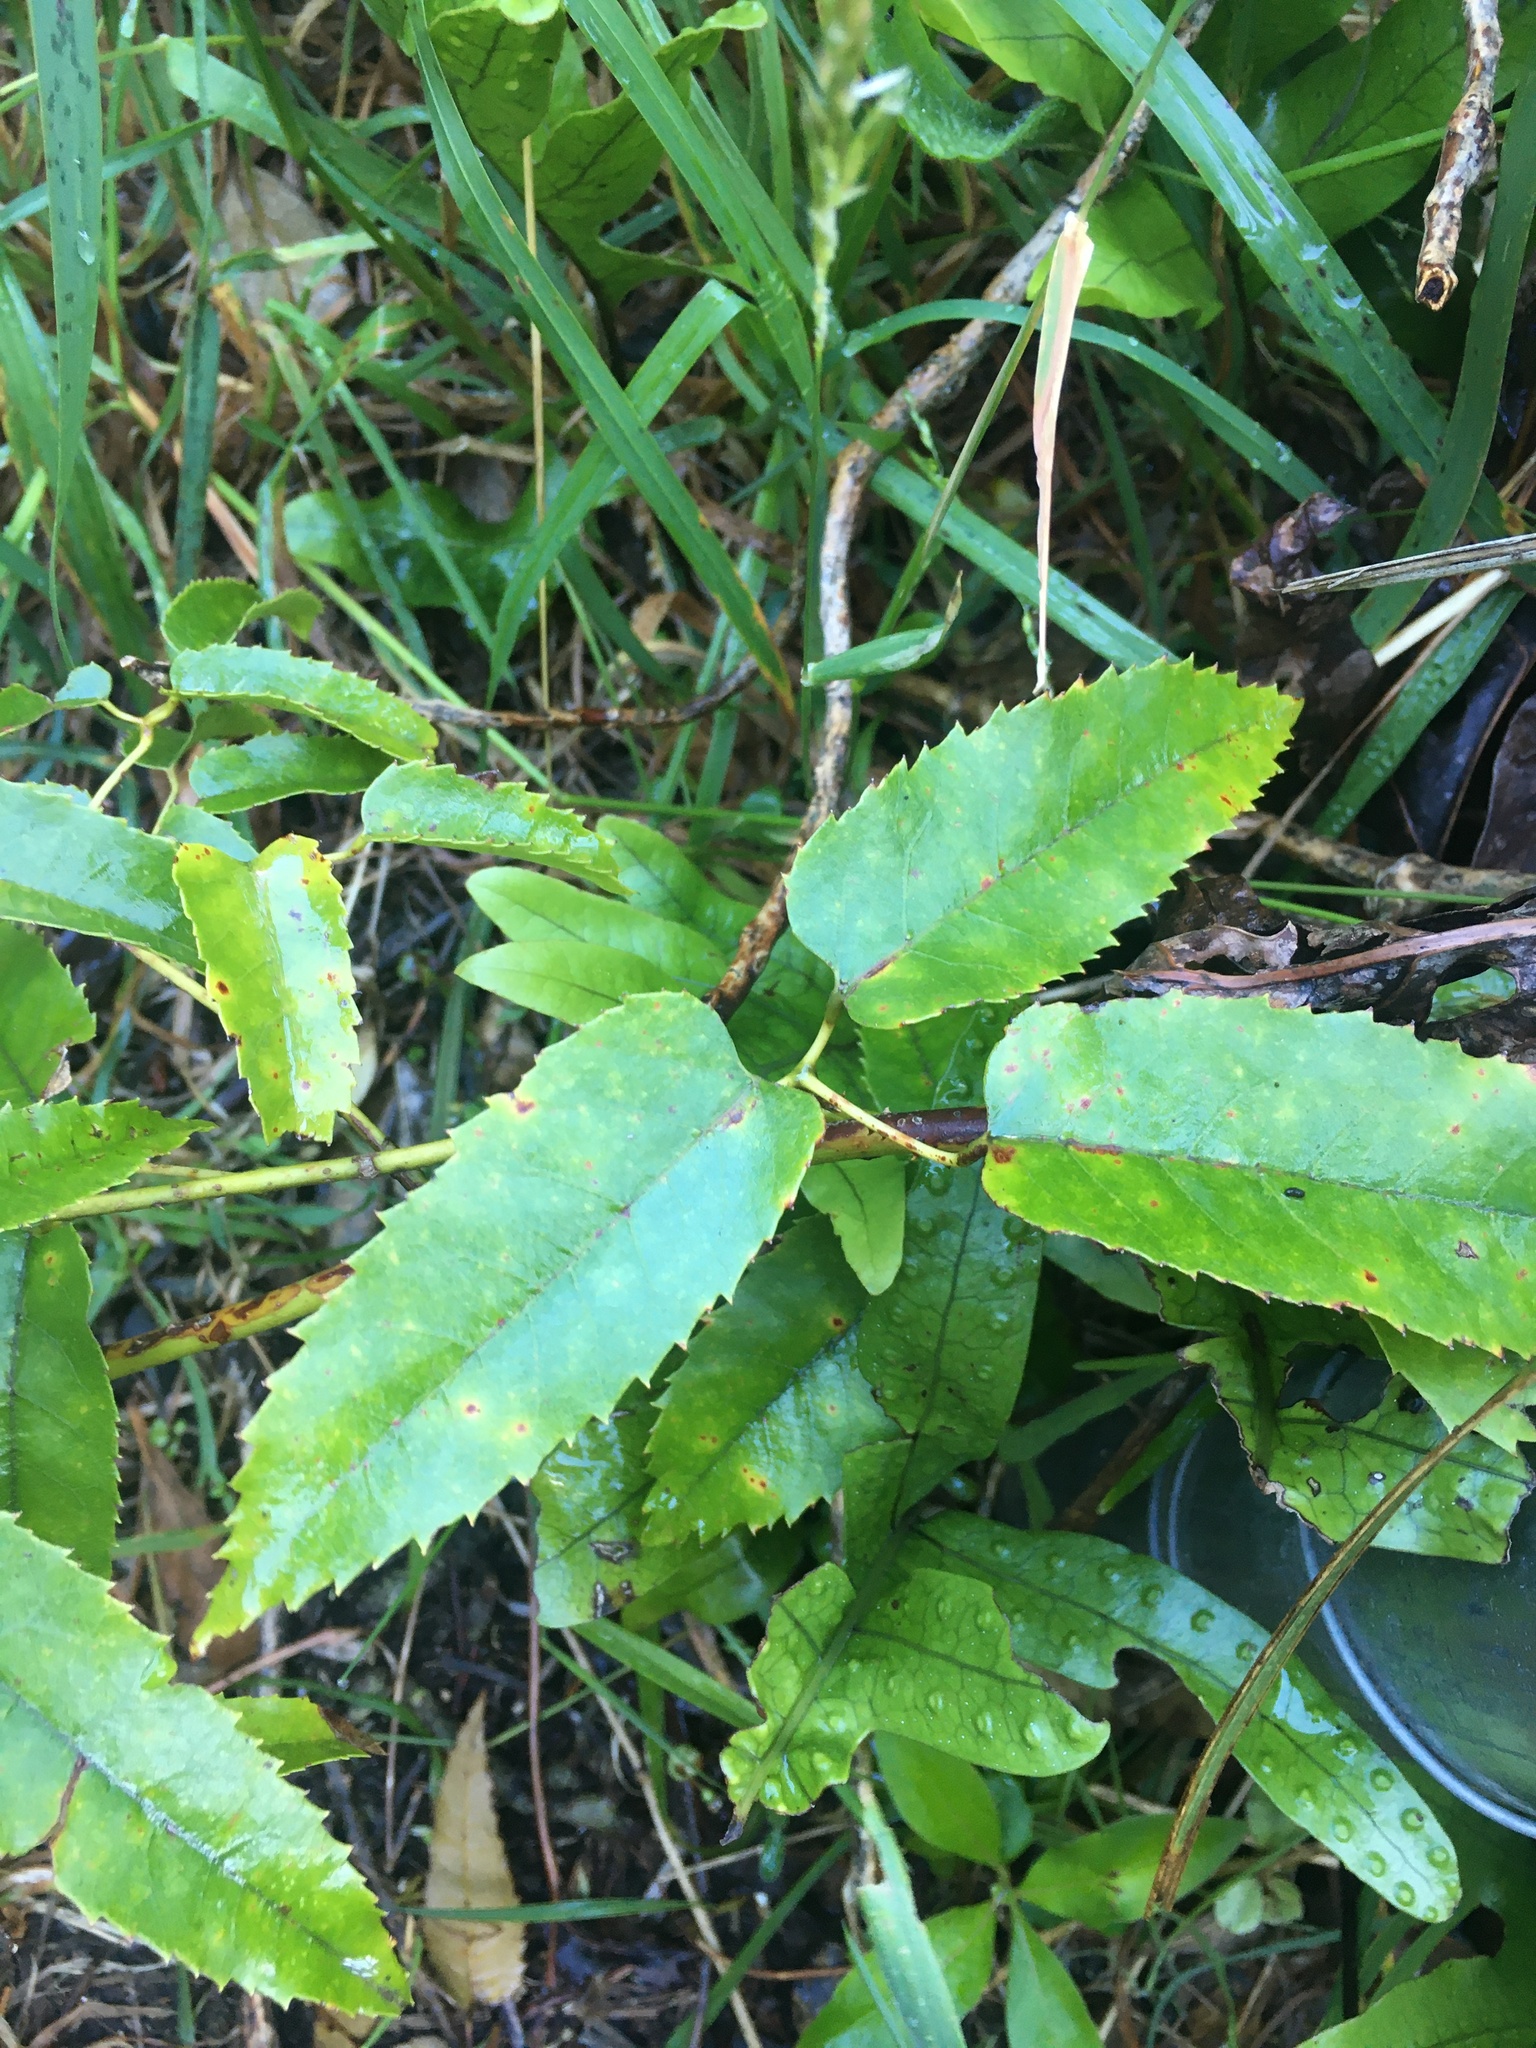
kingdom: Plantae
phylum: Tracheophyta
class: Magnoliopsida
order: Rosales
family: Rosaceae
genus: Rubus
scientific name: Rubus cissoides
